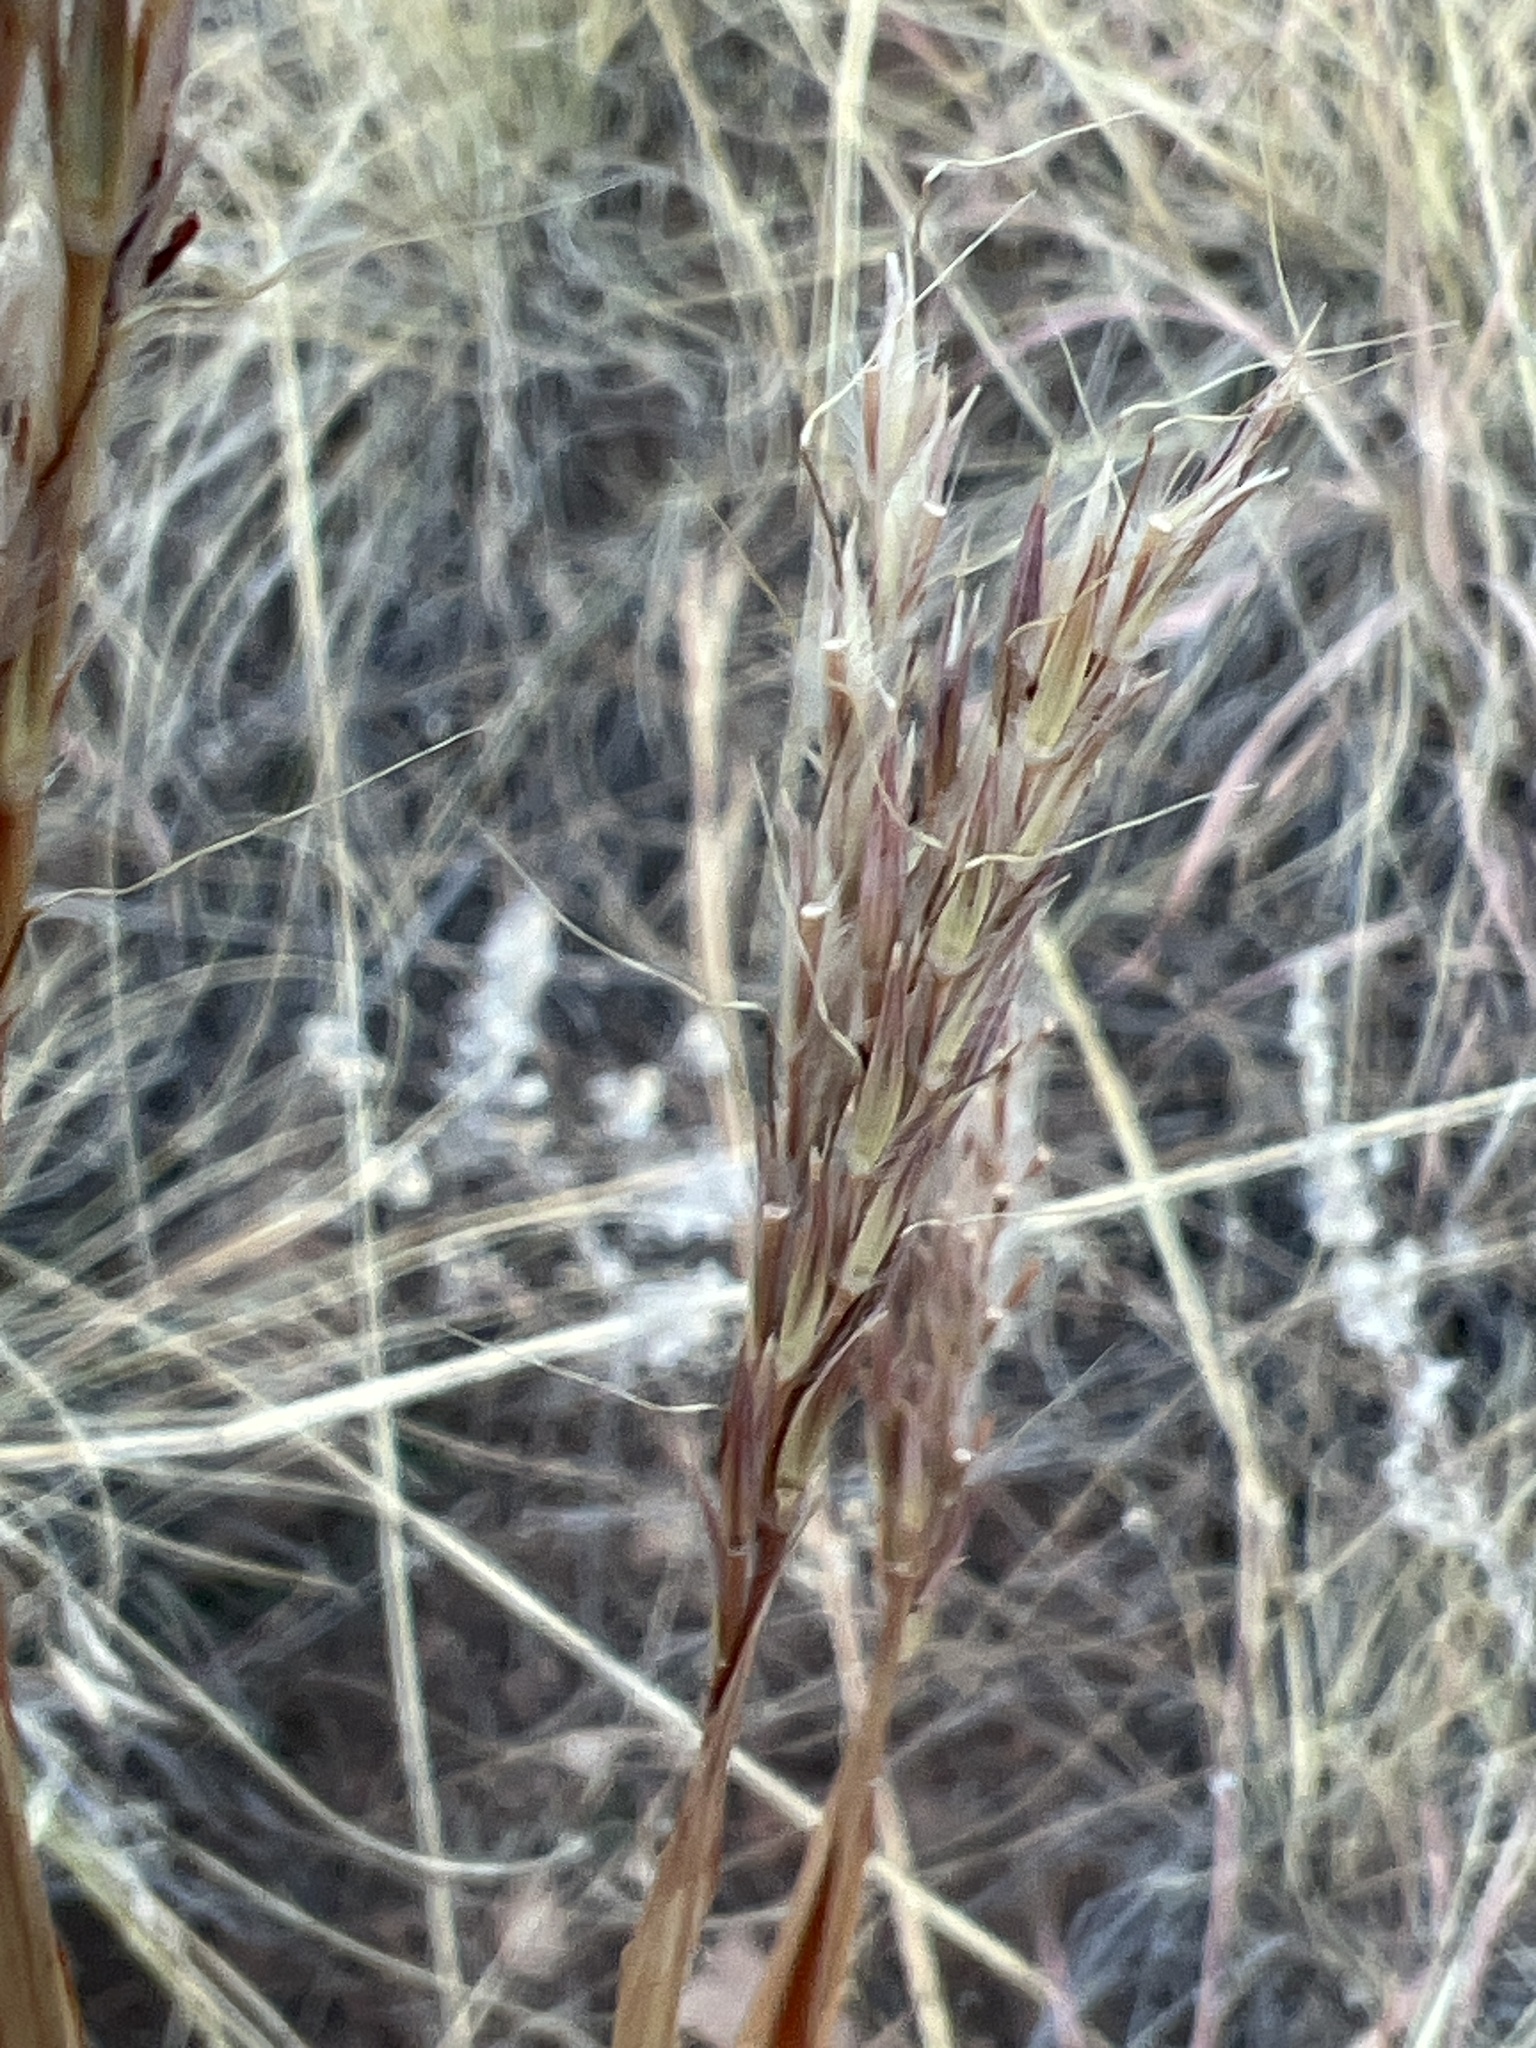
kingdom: Plantae
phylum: Tracheophyta
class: Liliopsida
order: Poales
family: Poaceae
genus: Andropogon
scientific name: Andropogon gerardi
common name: Big bluestem
